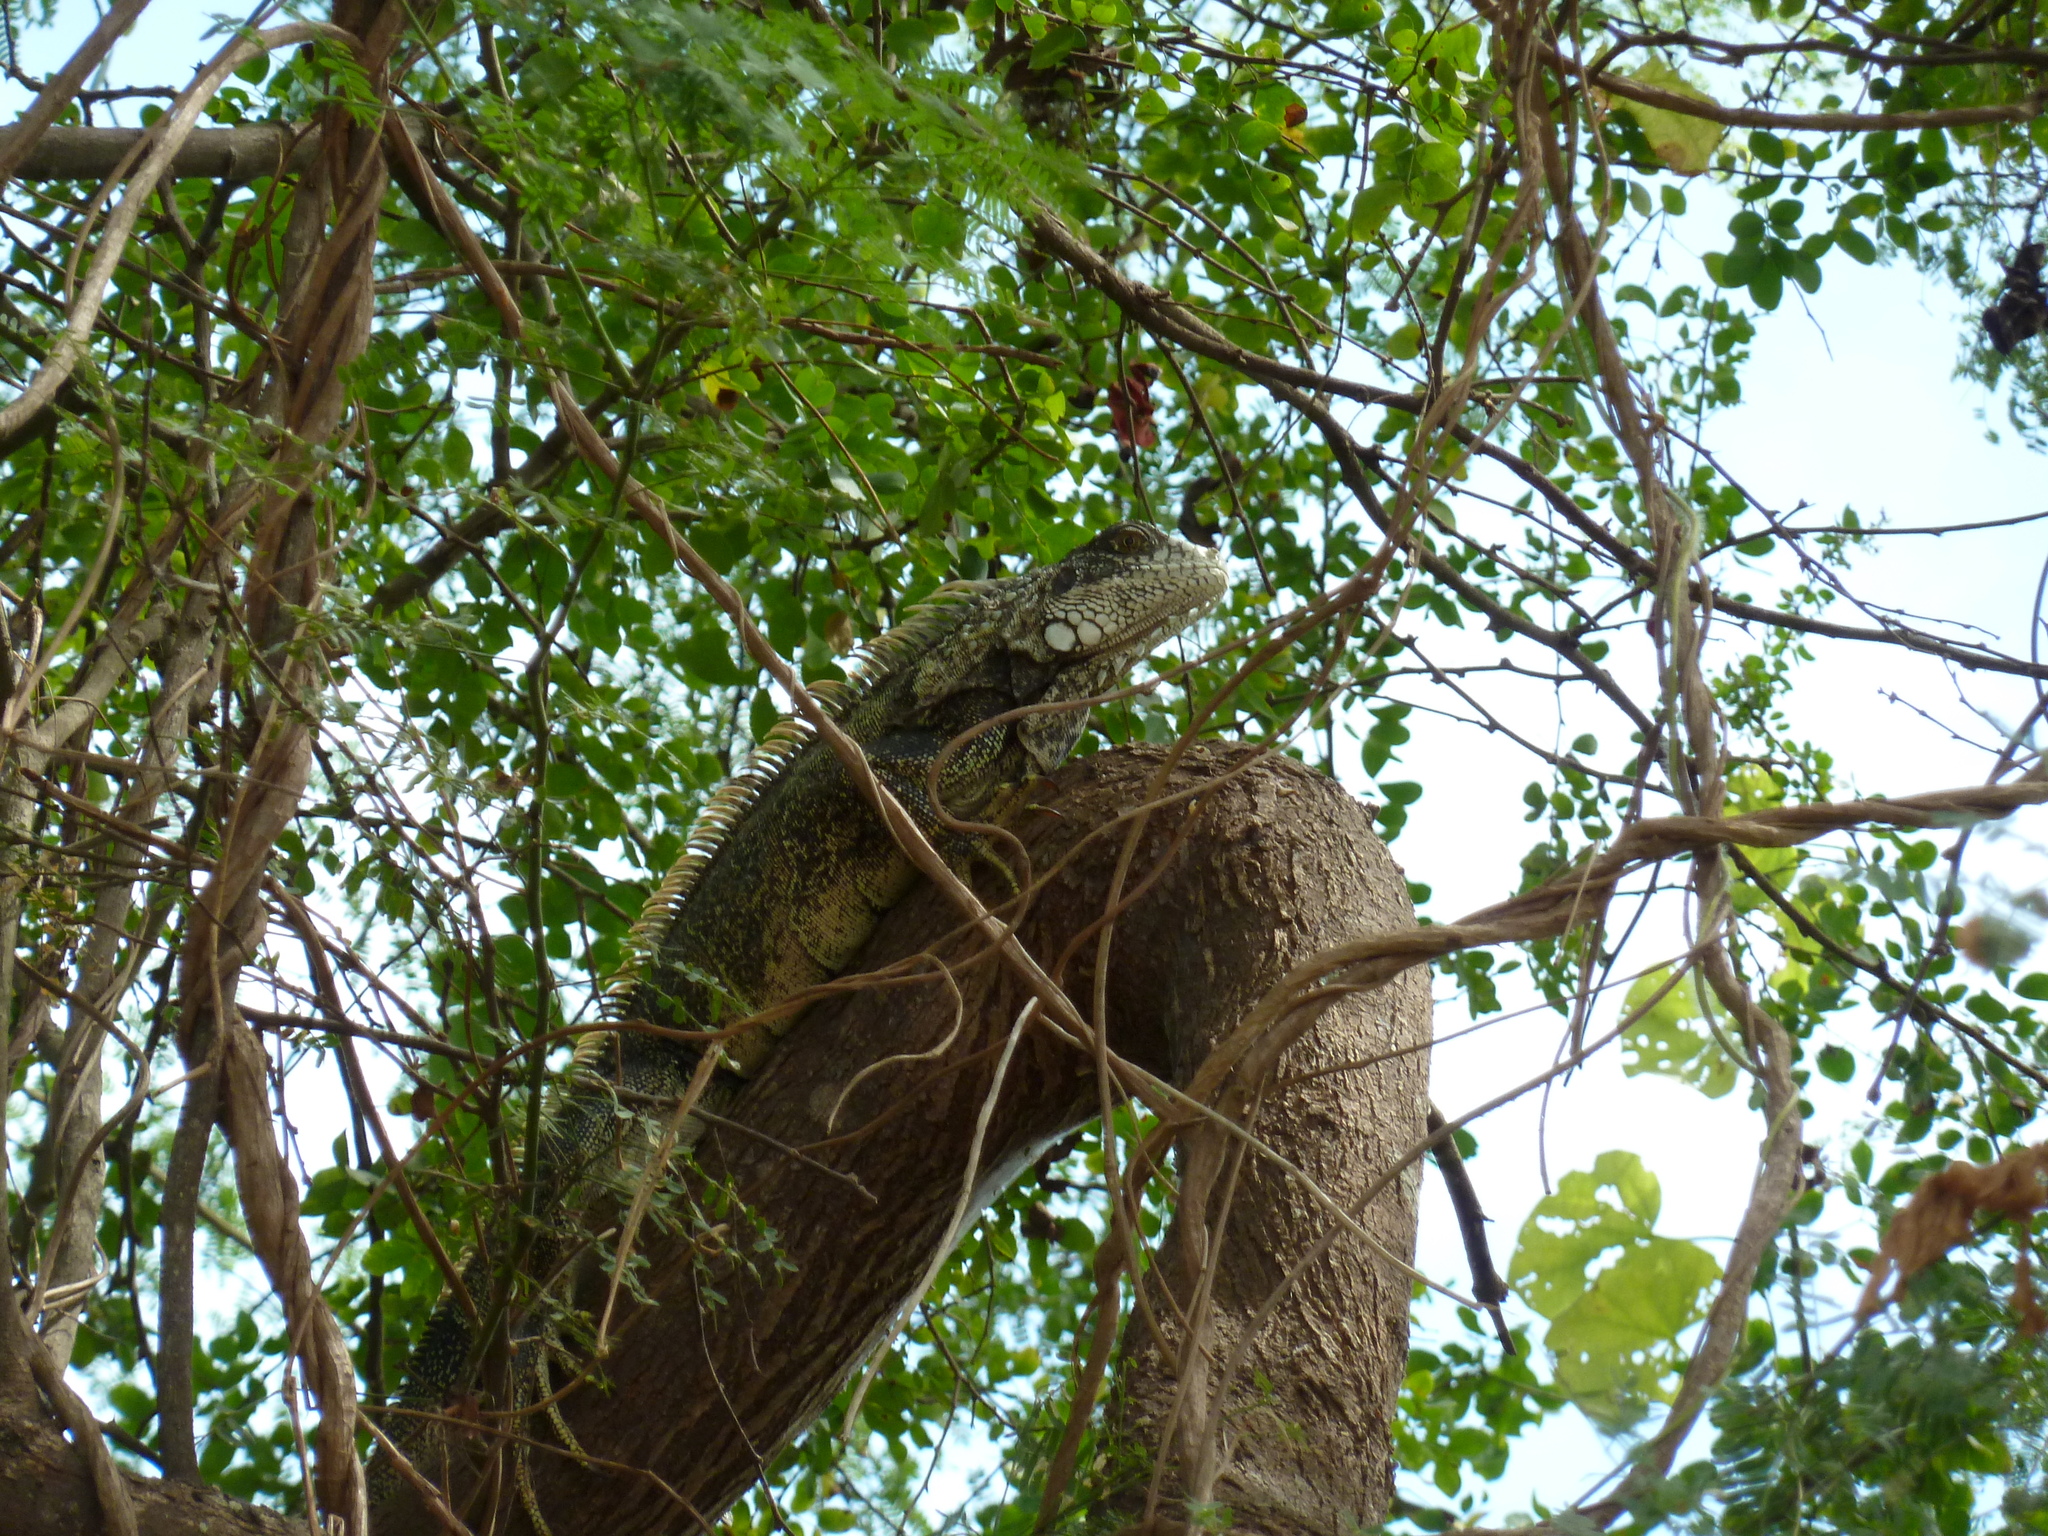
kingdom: Animalia
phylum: Chordata
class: Squamata
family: Iguanidae
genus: Iguana
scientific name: Iguana iguana
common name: Green iguana
